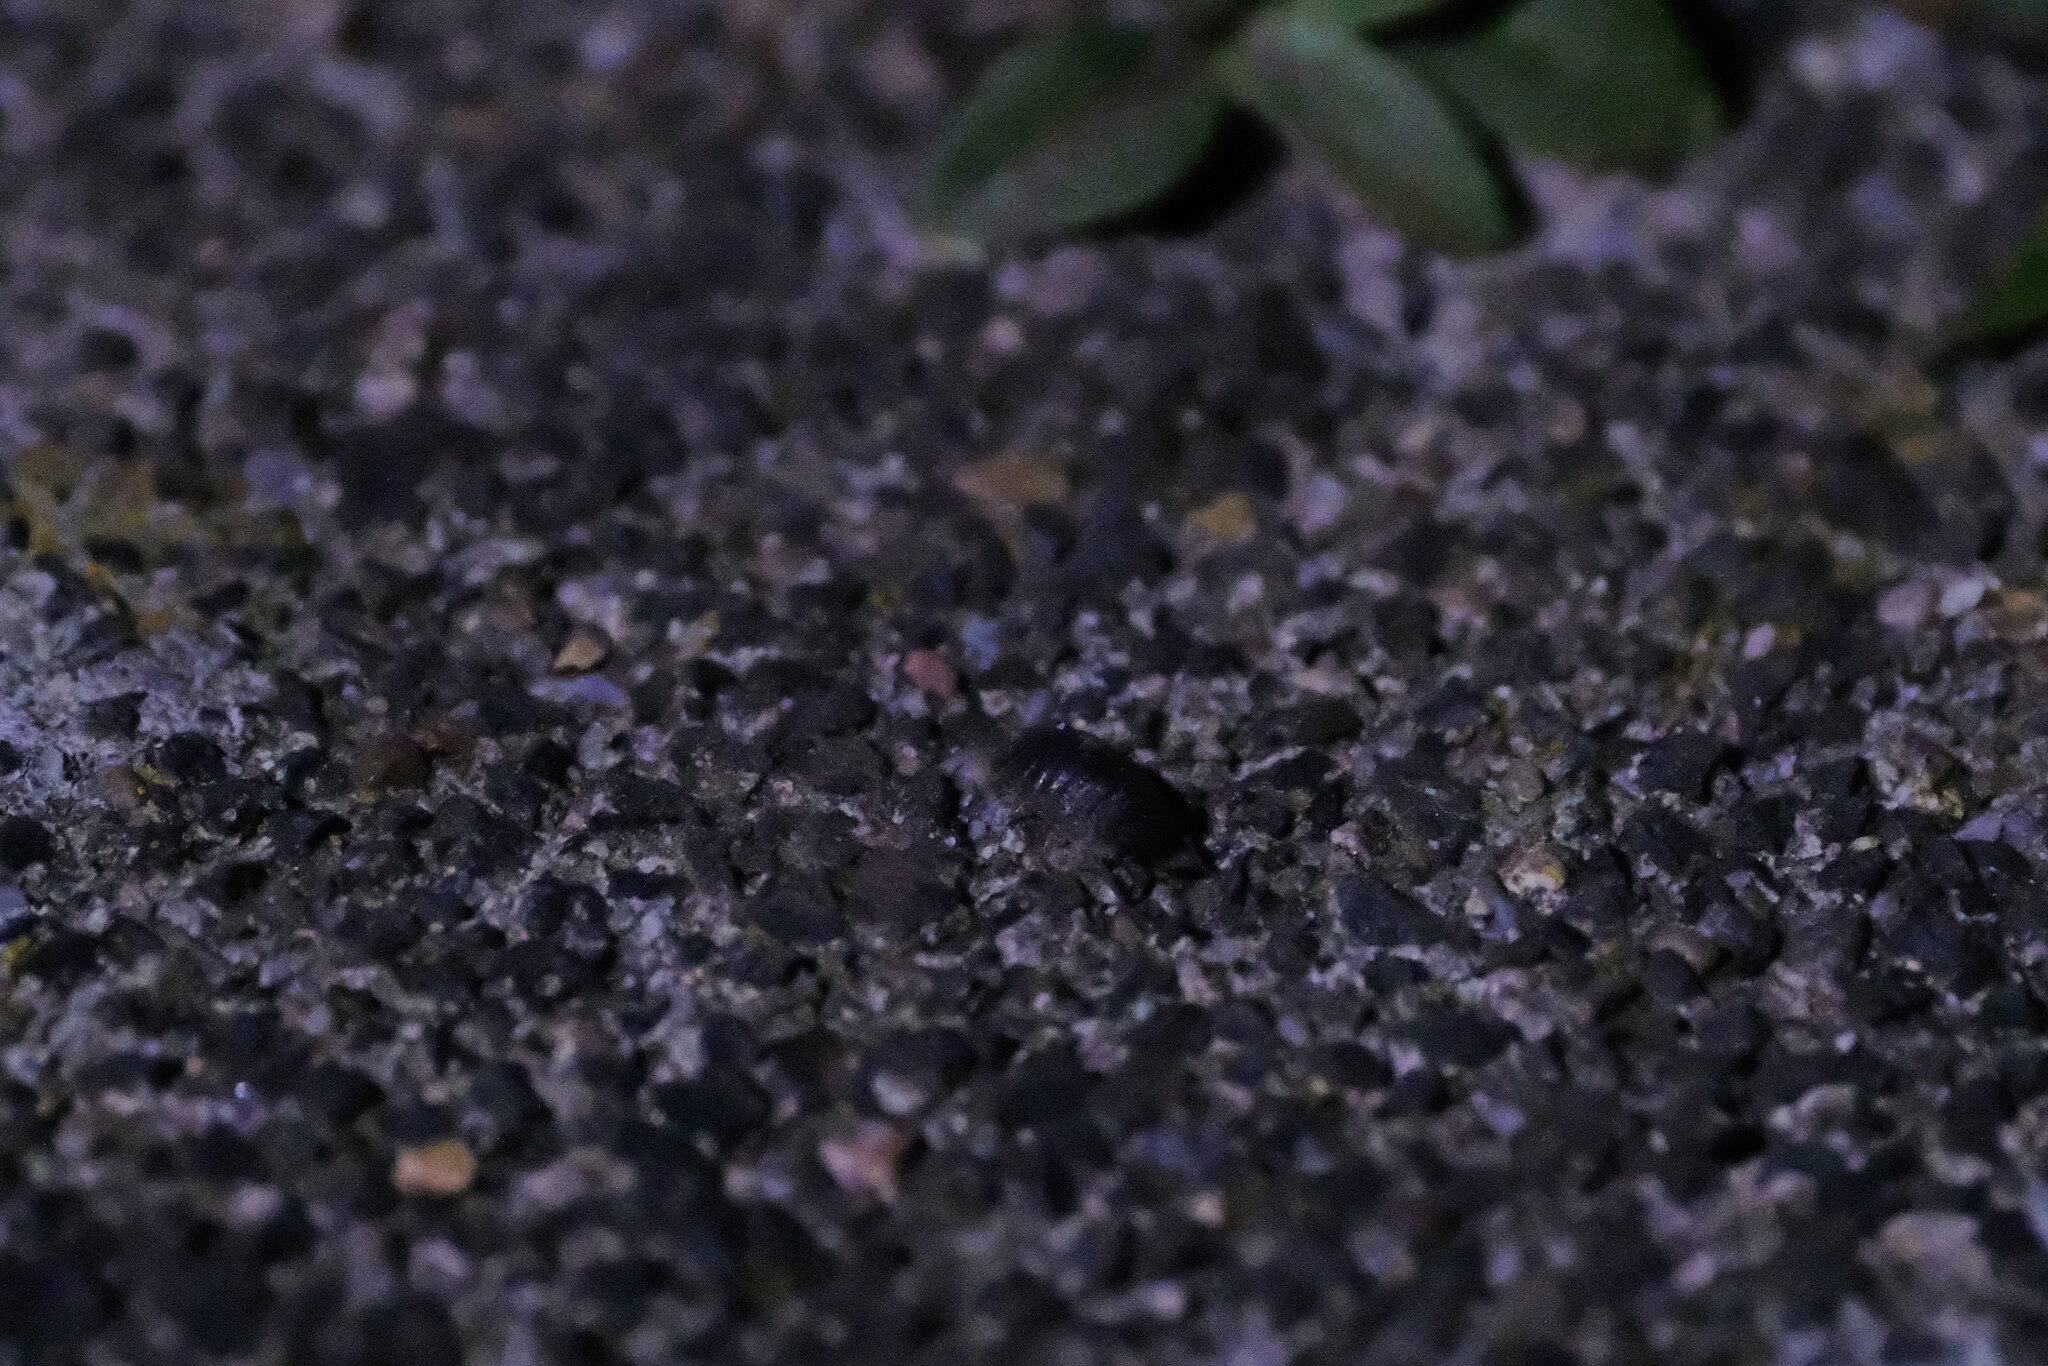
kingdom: Animalia
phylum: Arthropoda
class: Malacostraca
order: Isopoda
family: Porcellionidae
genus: Porcellio
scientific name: Porcellio scaber
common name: Common rough woodlouse
